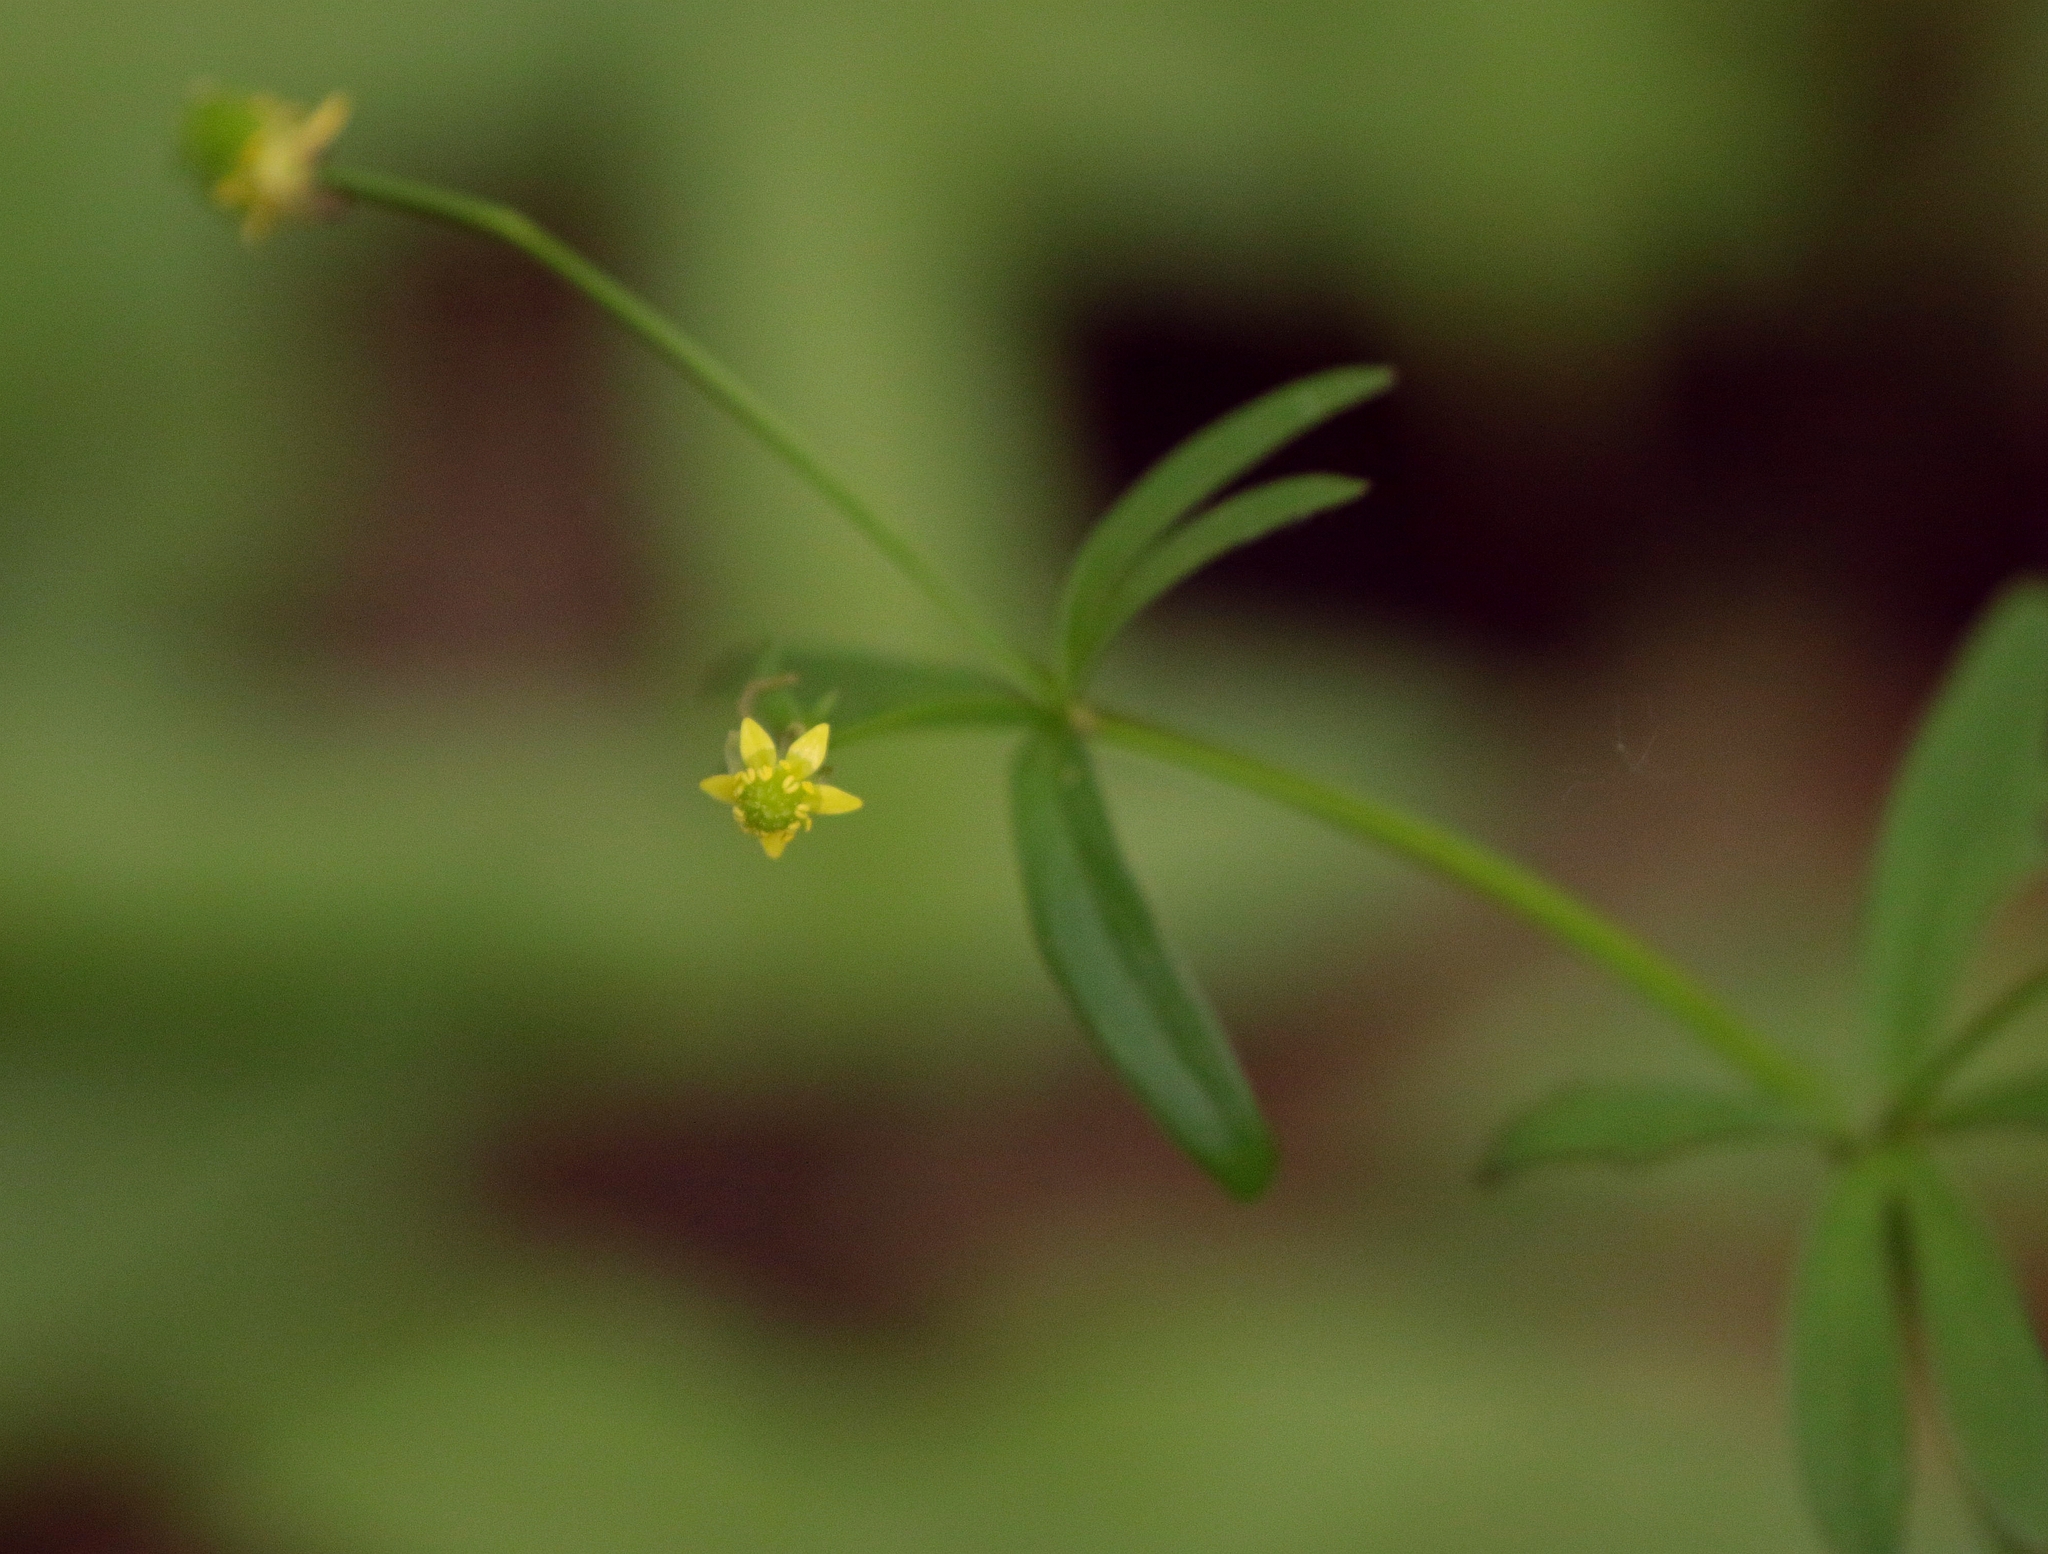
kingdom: Plantae
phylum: Tracheophyta
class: Magnoliopsida
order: Ranunculales
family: Ranunculaceae
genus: Ranunculus
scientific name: Ranunculus abortivus
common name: Early wood buttercup
